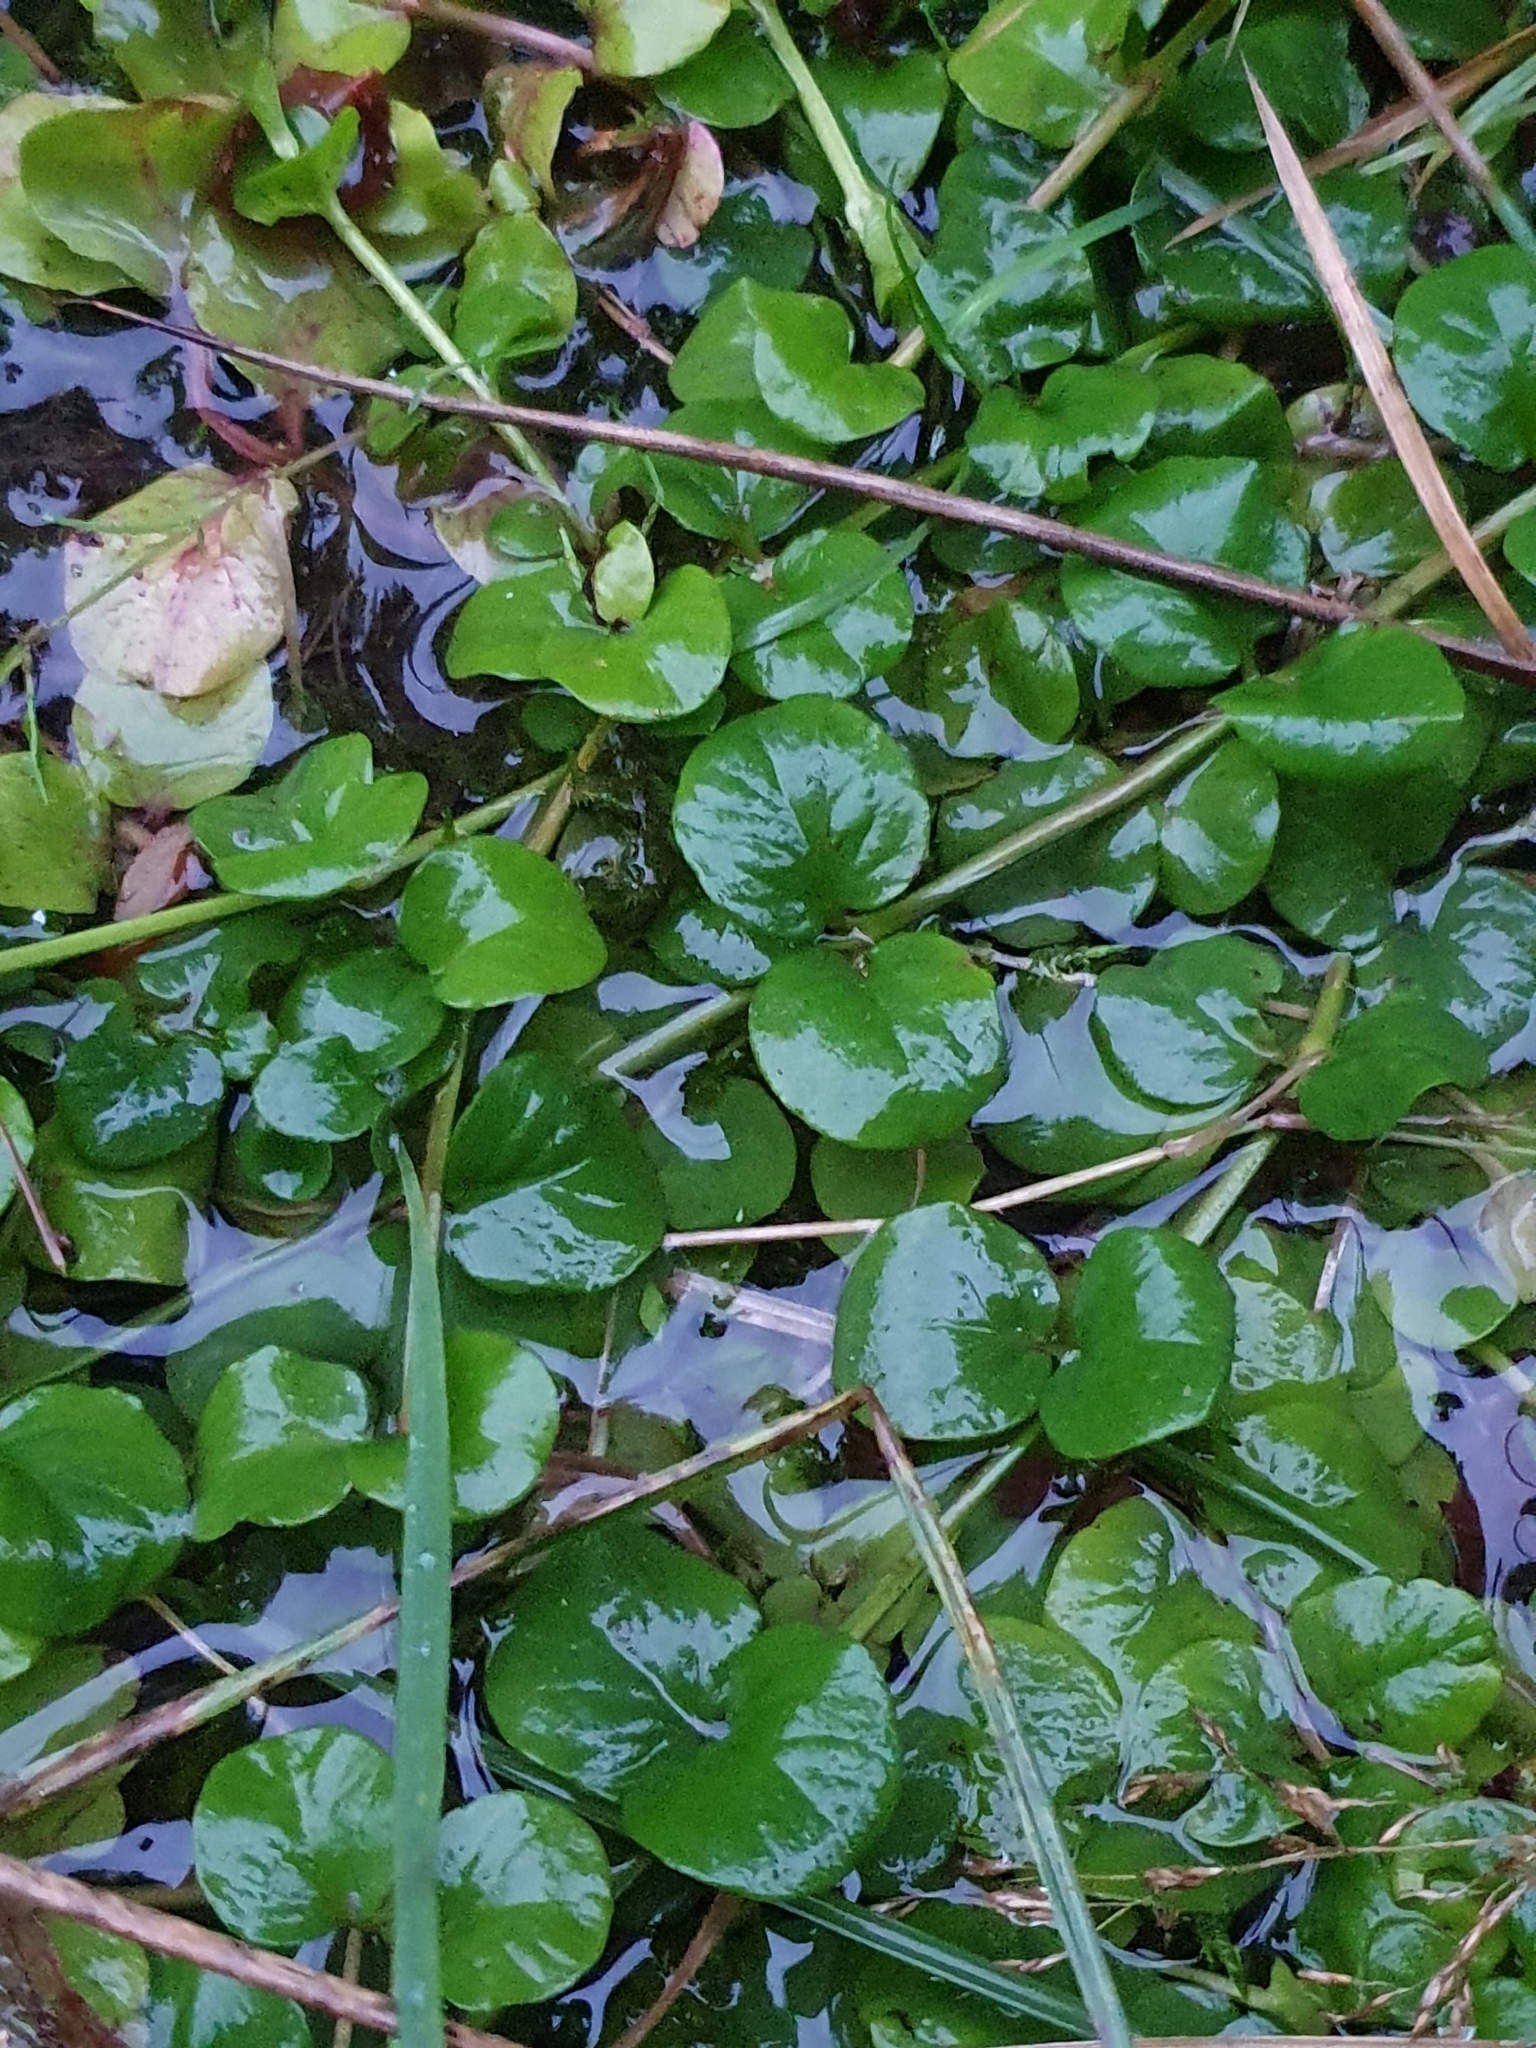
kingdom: Plantae
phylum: Tracheophyta
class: Magnoliopsida
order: Ericales
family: Primulaceae
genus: Lysimachia
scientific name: Lysimachia nummularia
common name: Moneywort
